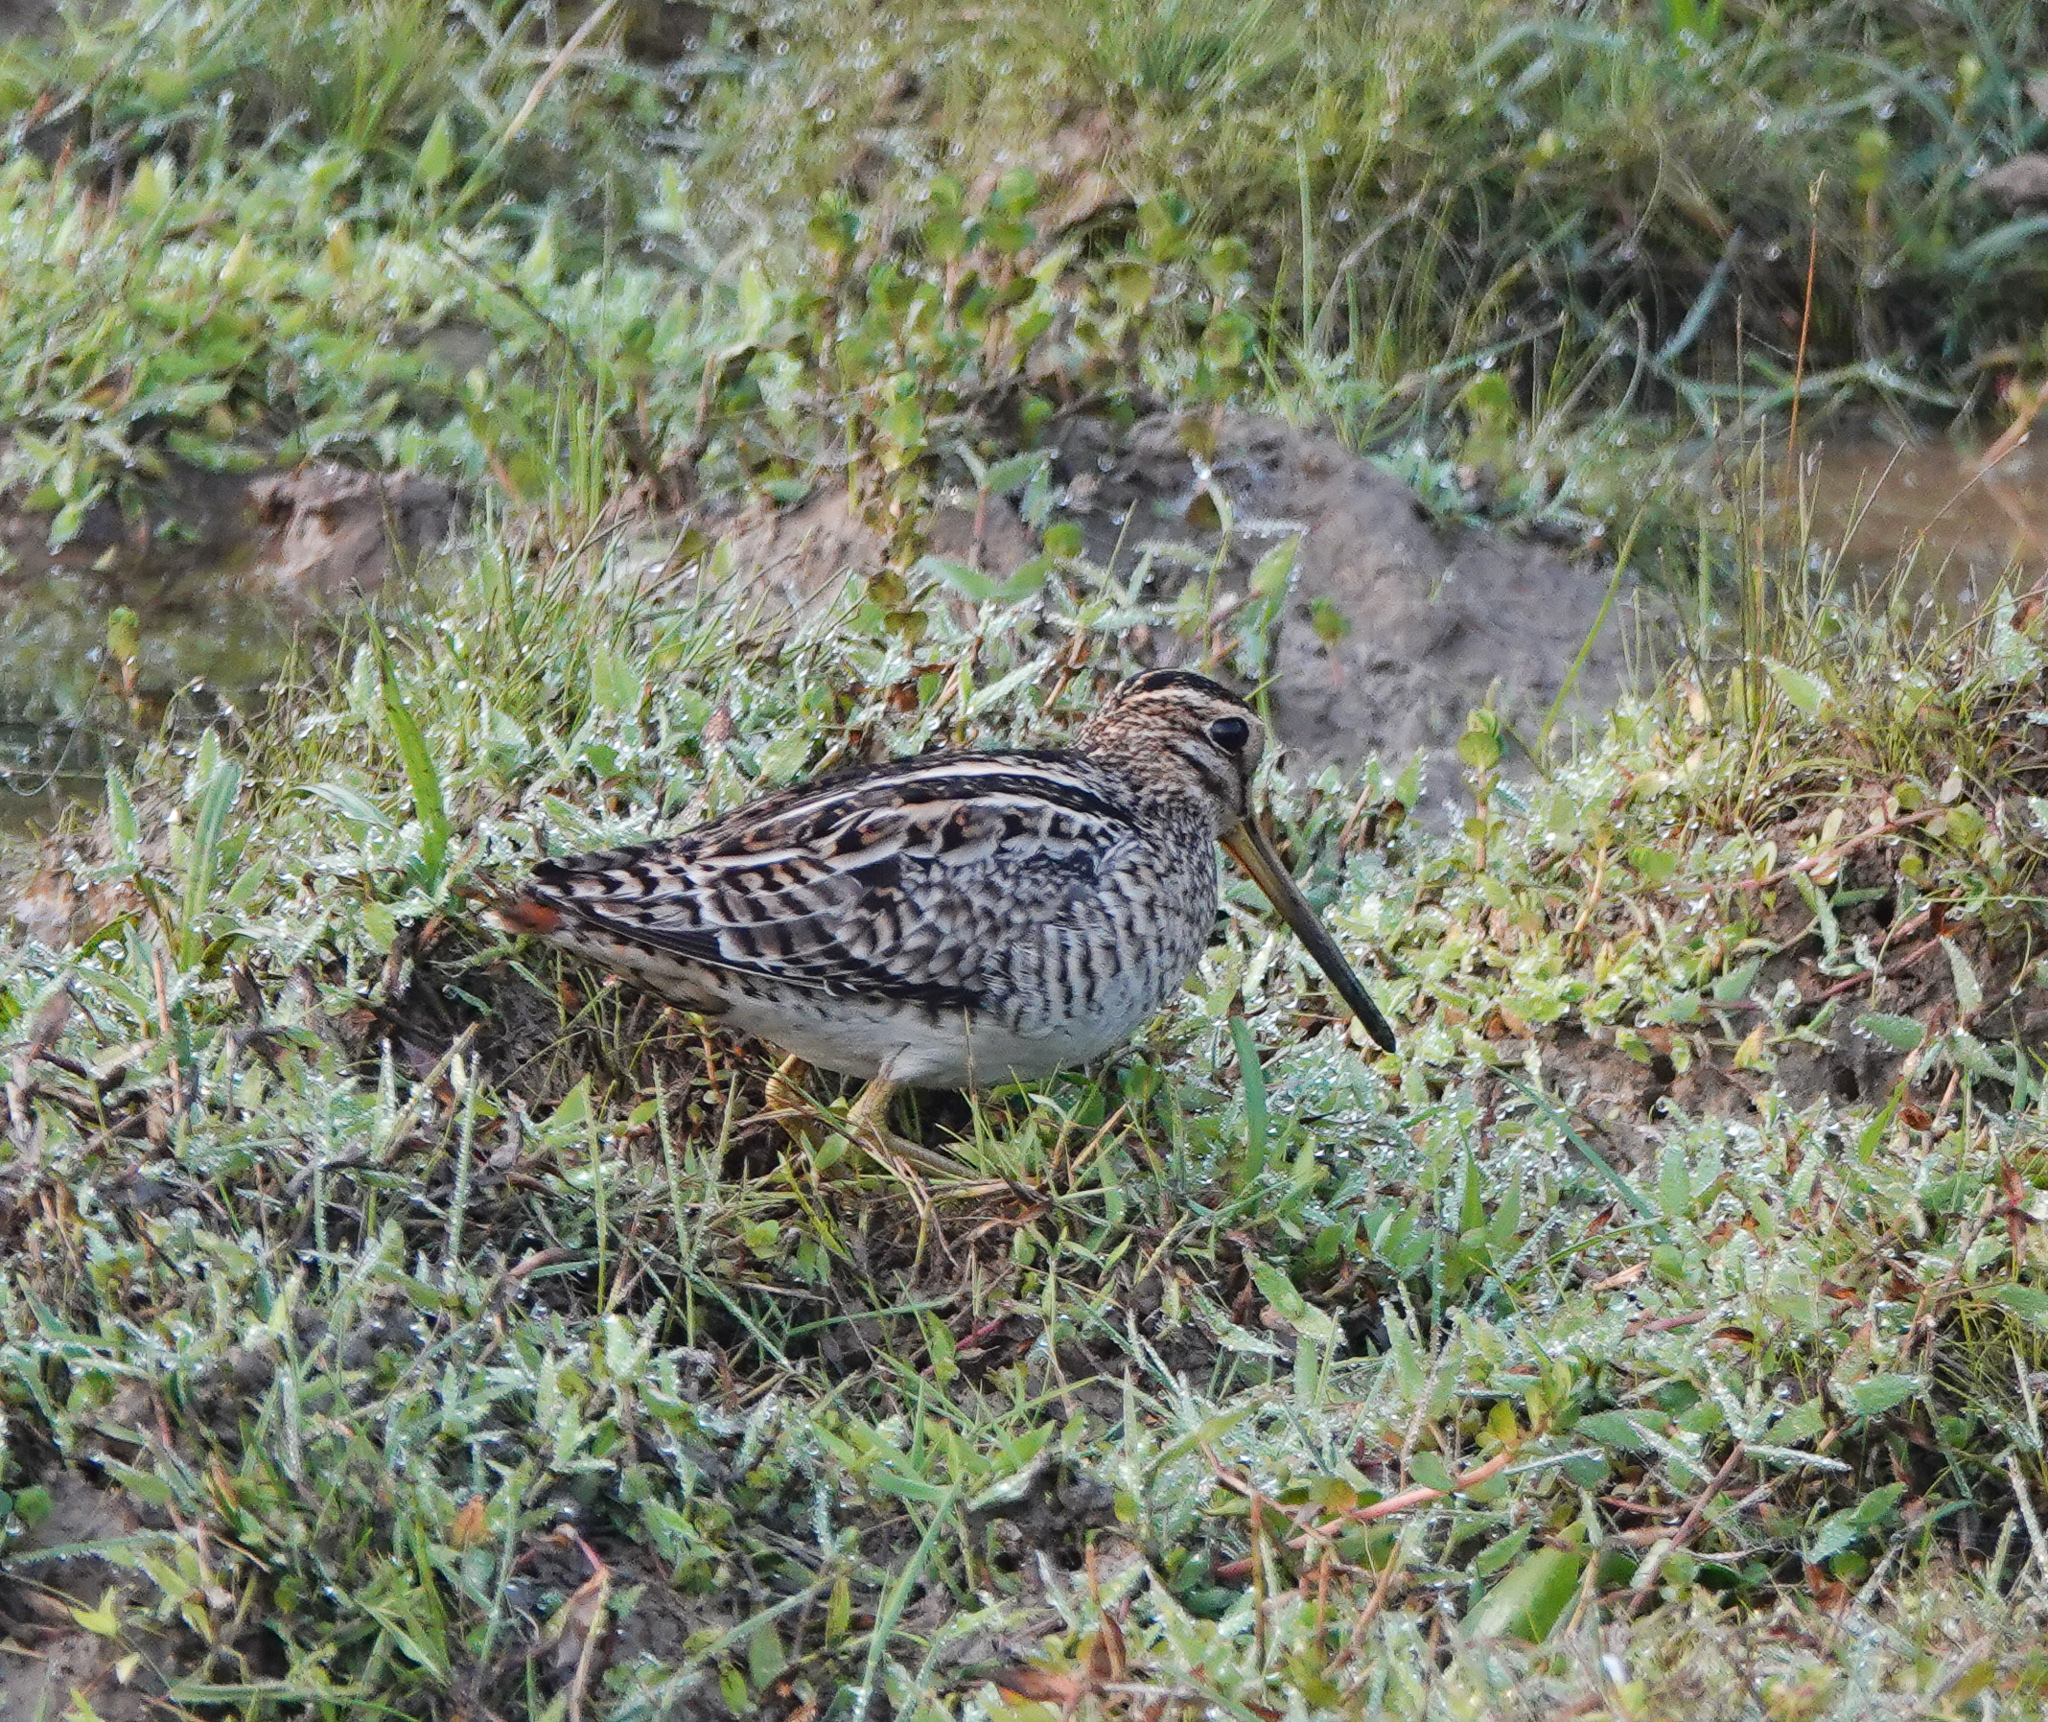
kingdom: Animalia
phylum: Chordata
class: Aves
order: Charadriiformes
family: Scolopacidae
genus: Gallinago
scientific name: Gallinago gallinago
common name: Common snipe
